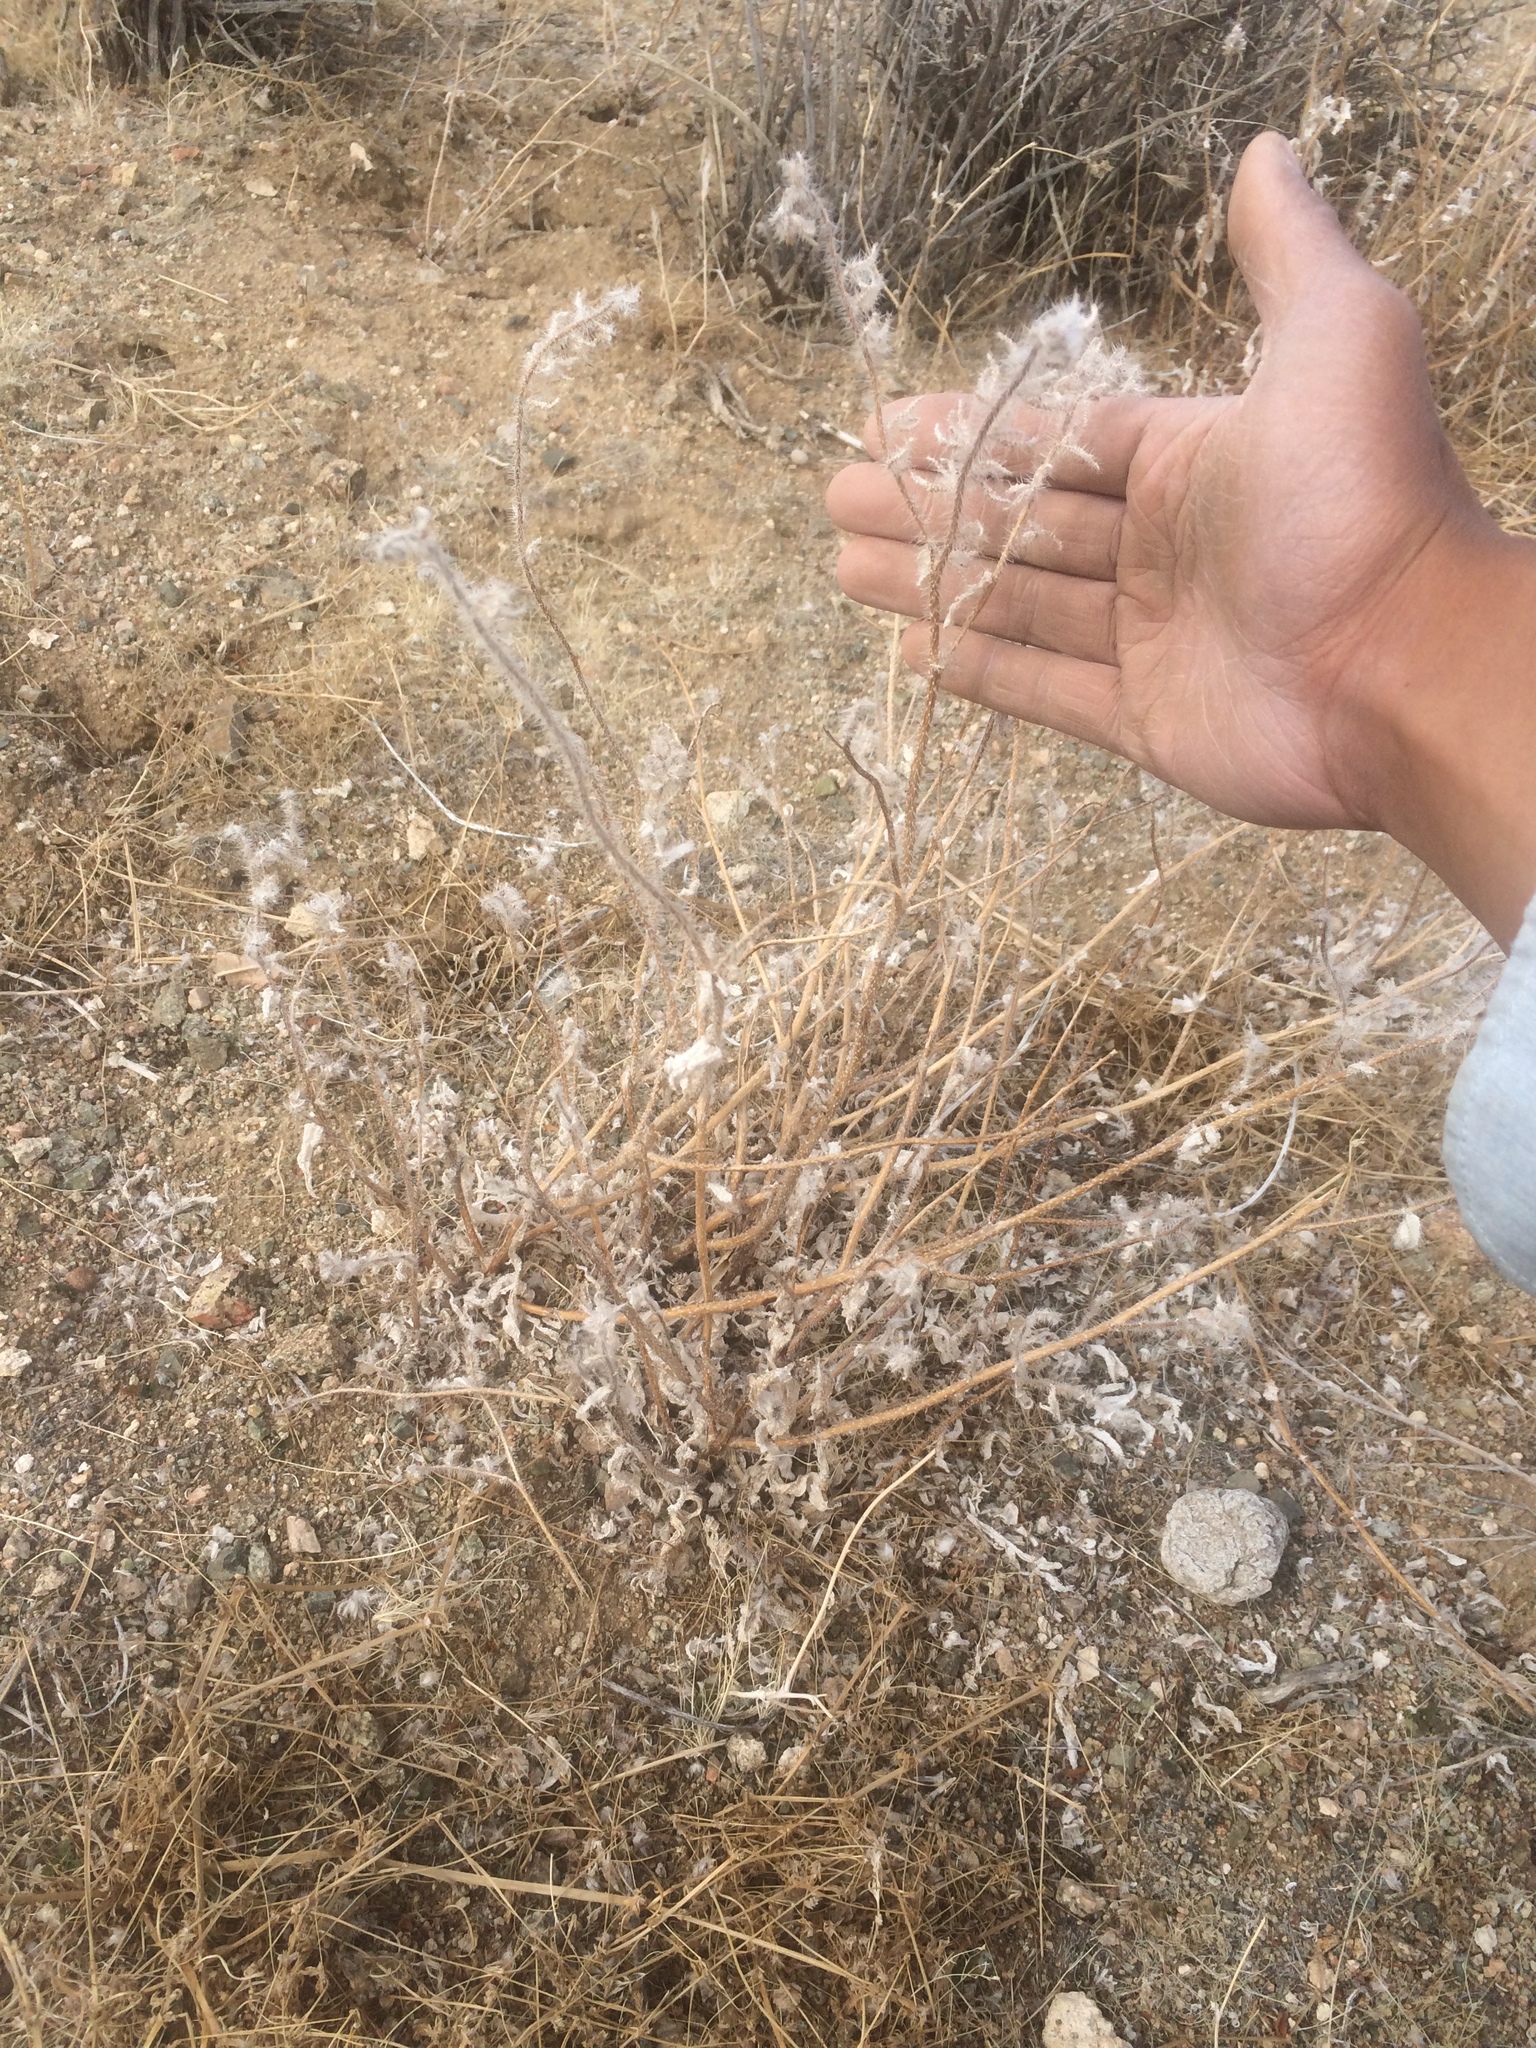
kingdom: Plantae
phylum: Tracheophyta
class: Magnoliopsida
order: Boraginales
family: Boraginaceae
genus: Amsinckia
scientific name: Amsinckia tessellata
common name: Tessellate fiddleneck
